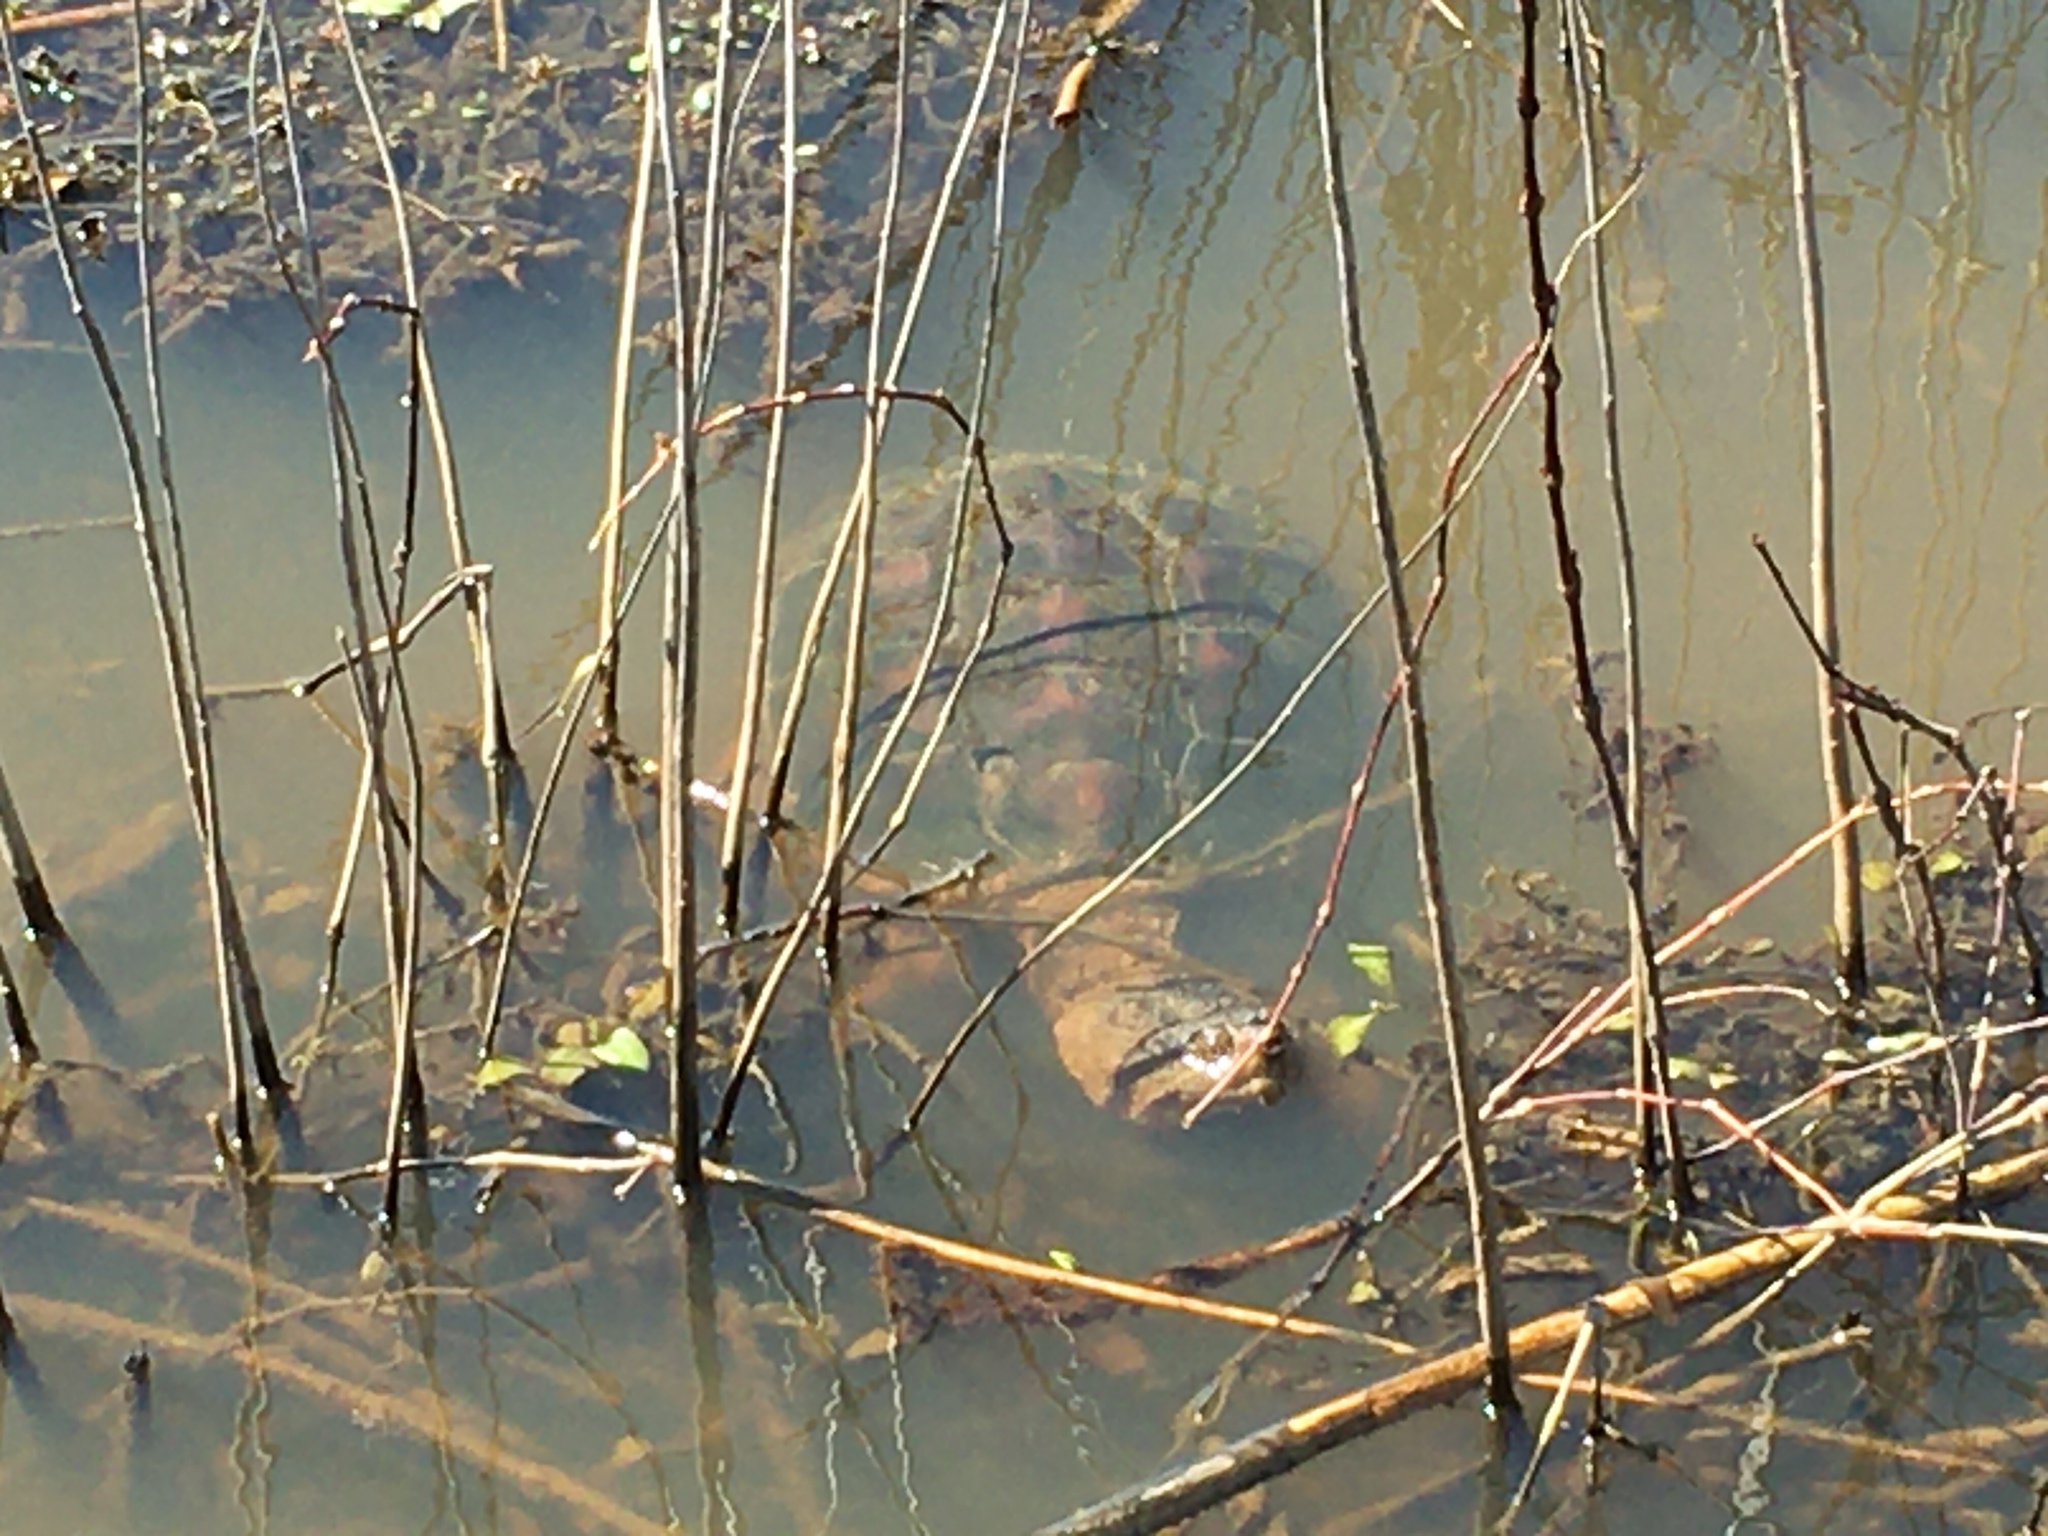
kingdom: Animalia
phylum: Chordata
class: Testudines
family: Chelydridae
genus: Chelydra
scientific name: Chelydra serpentina
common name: Common snapping turtle
